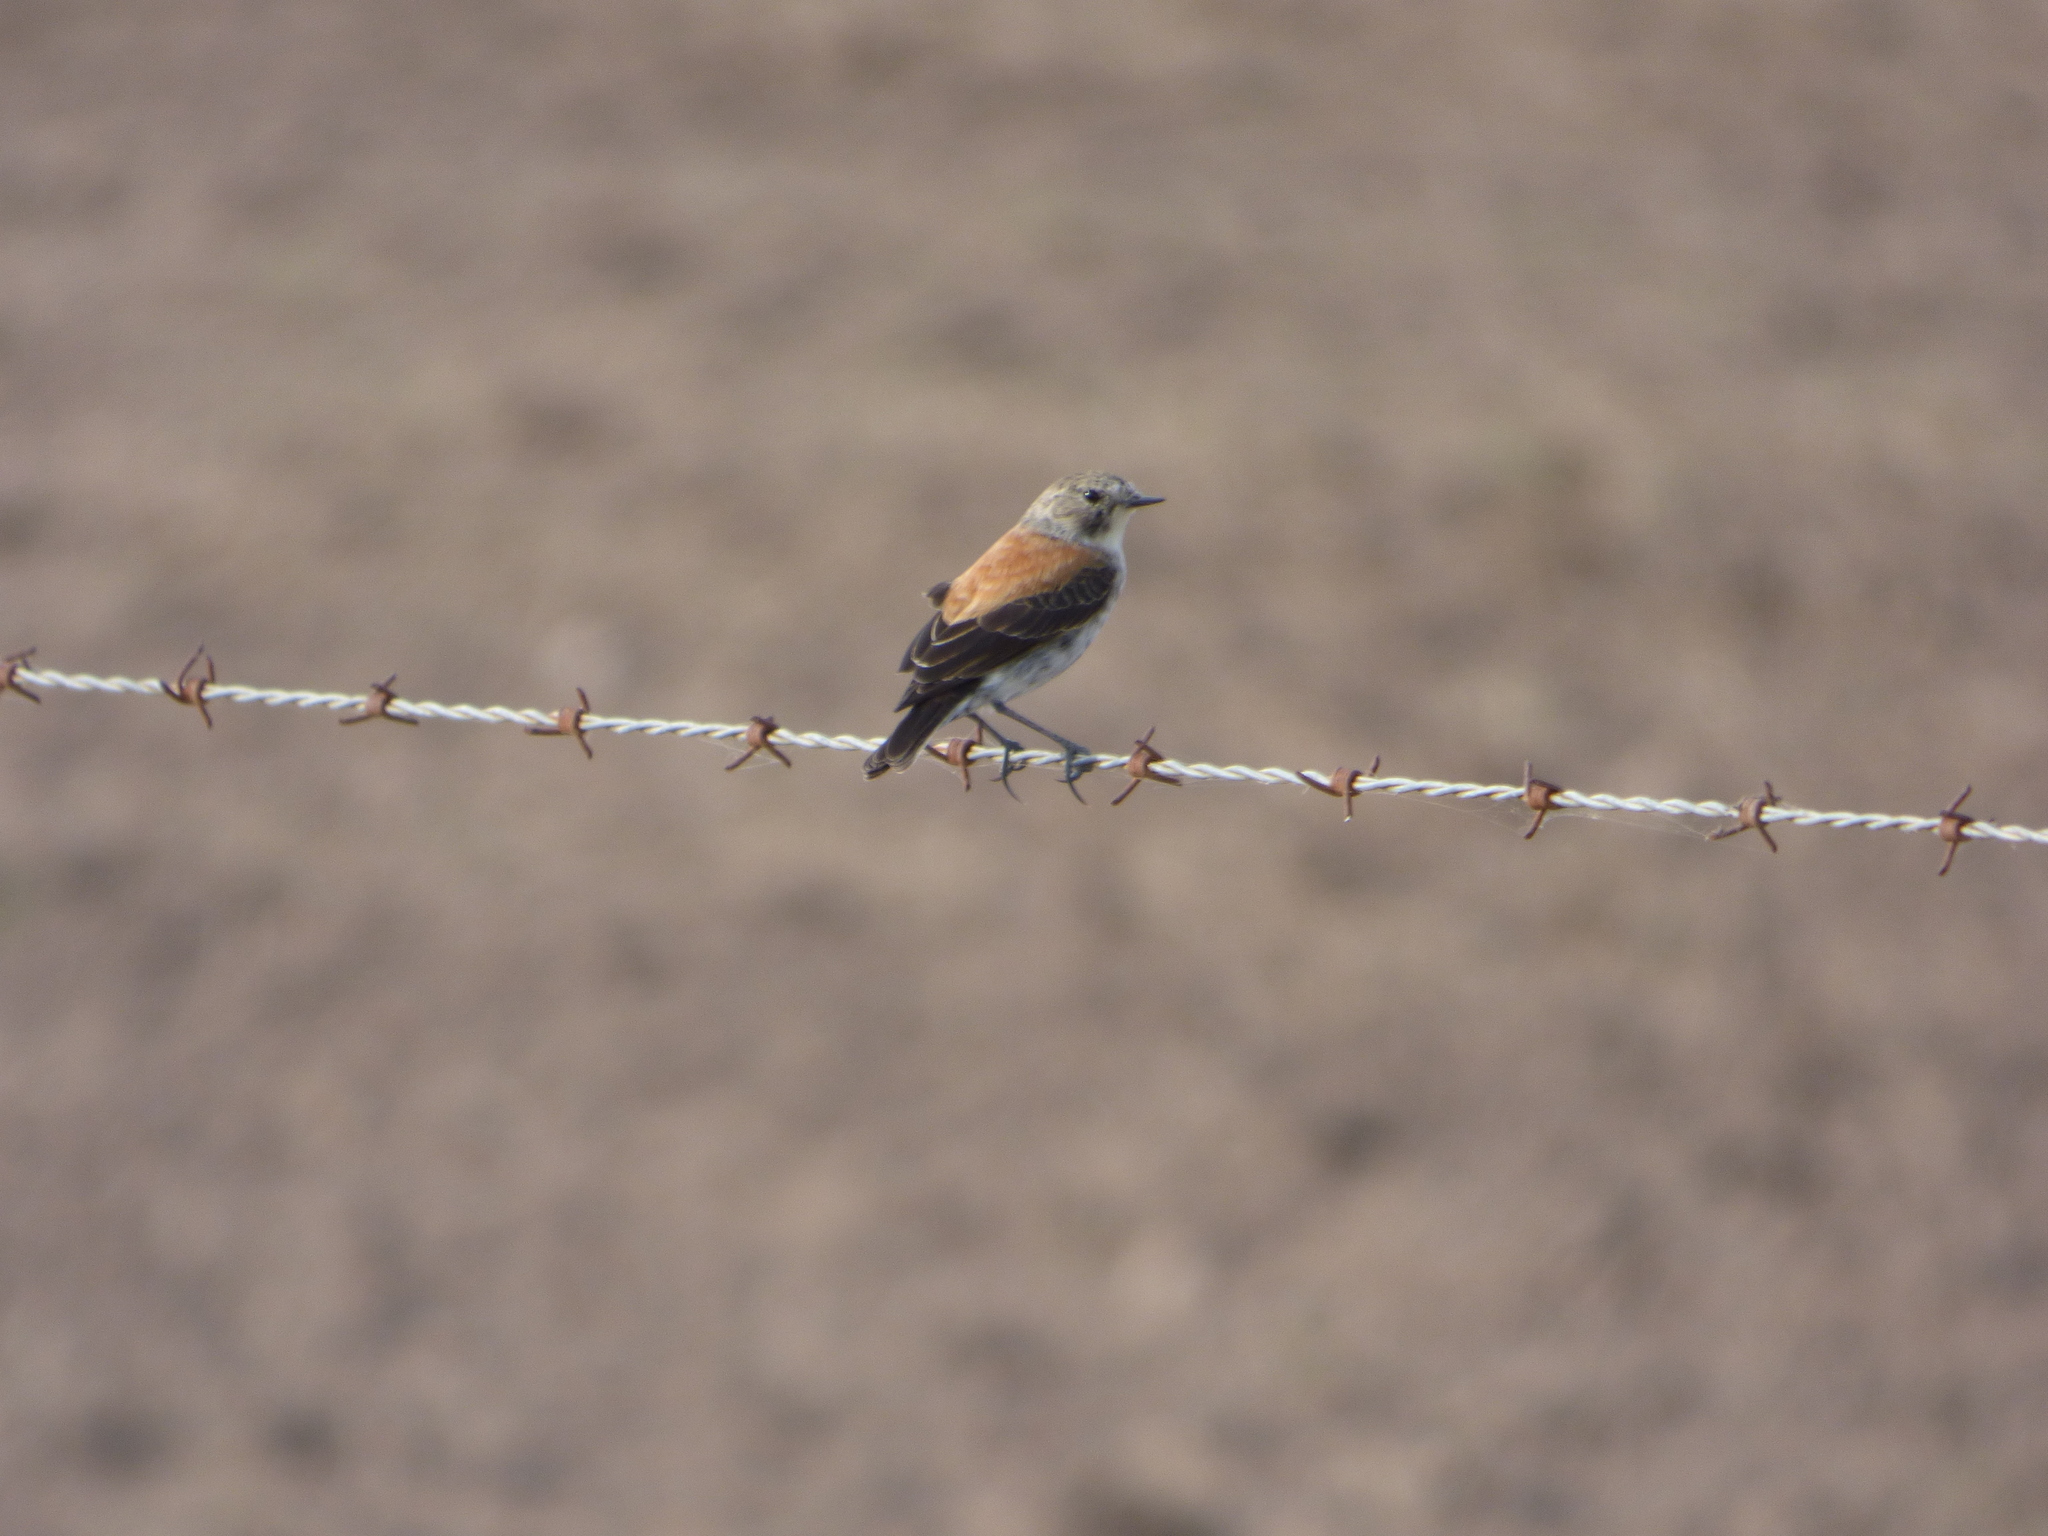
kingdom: Animalia
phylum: Chordata
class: Aves
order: Passeriformes
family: Tyrannidae
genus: Lessonia
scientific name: Lessonia rufa
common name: Austral negrito
